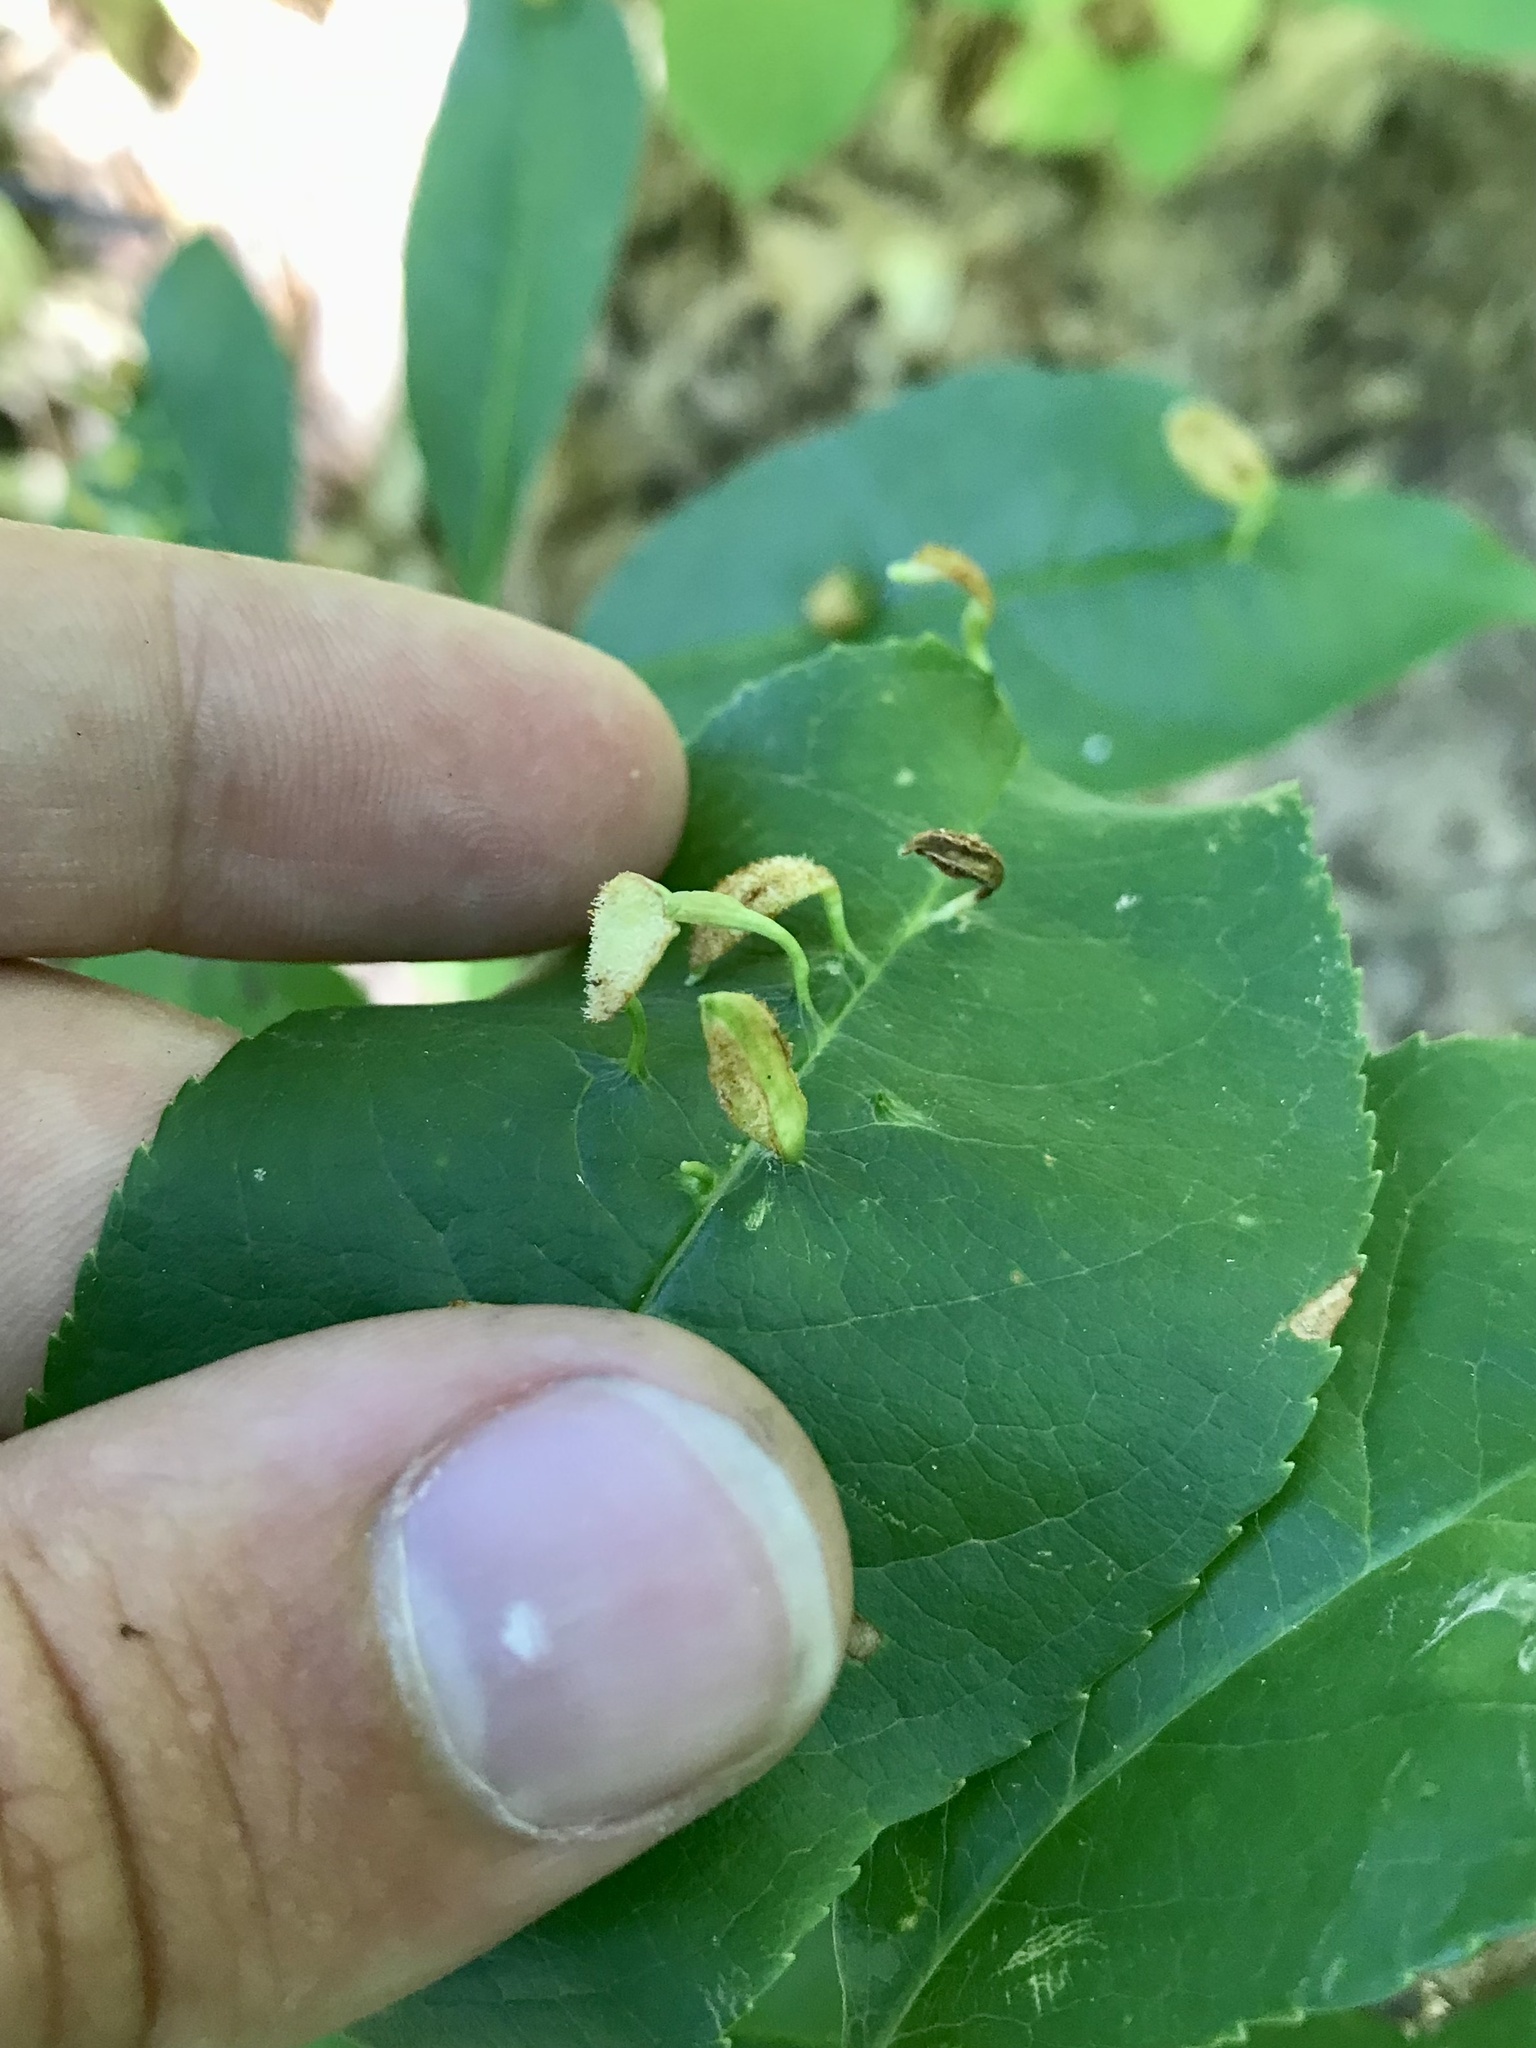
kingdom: Animalia
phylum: Arthropoda
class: Arachnida
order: Trombidiformes
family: Eriophyidae
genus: Eriophyes
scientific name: Eriophyes
